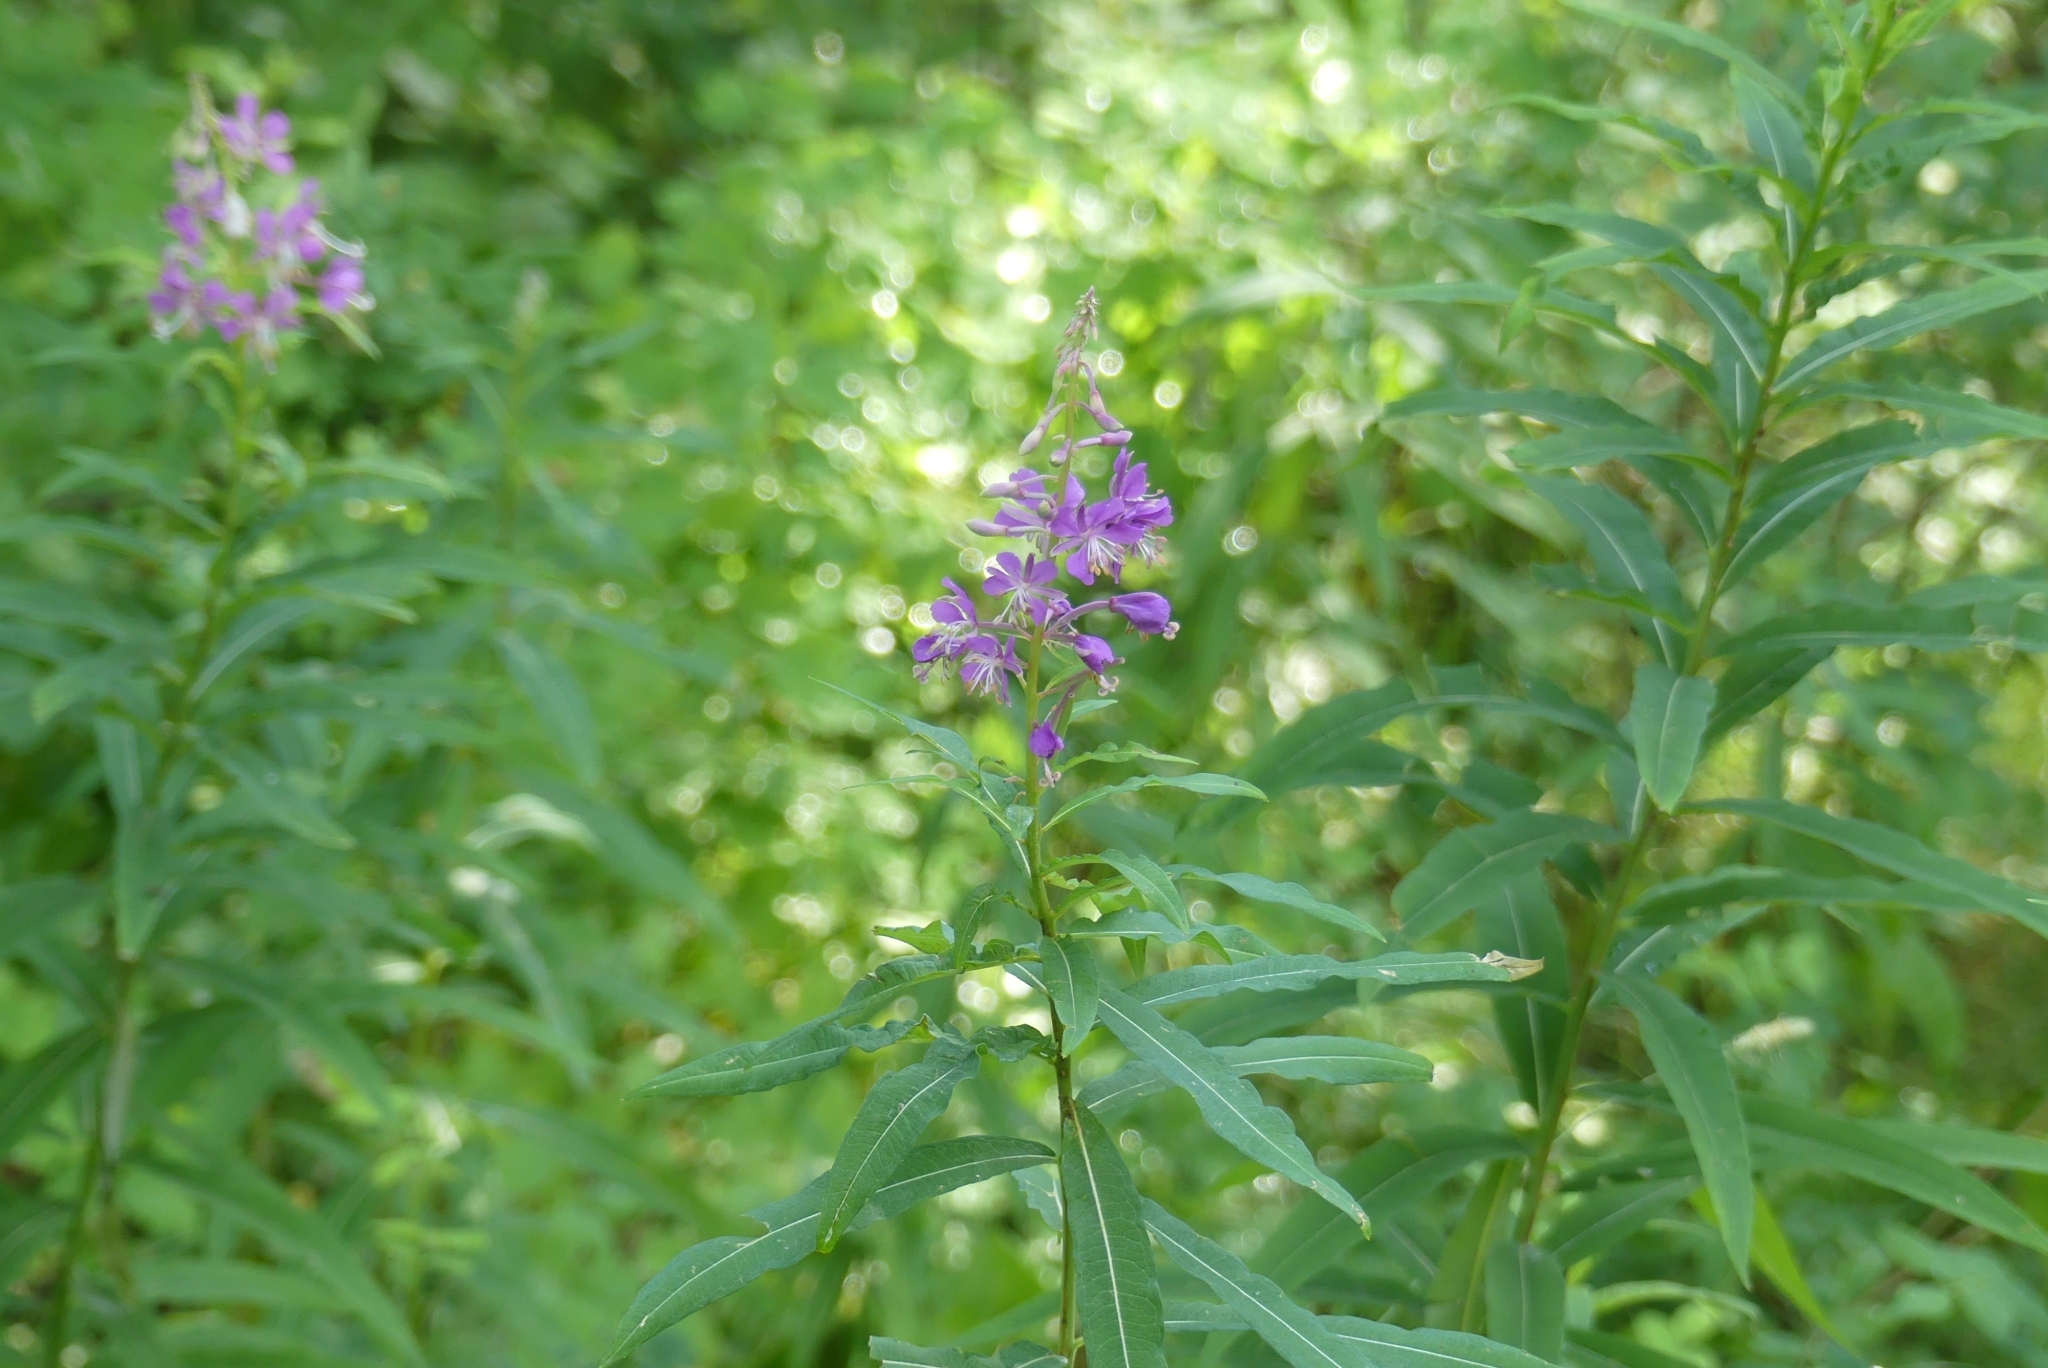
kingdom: Plantae
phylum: Tracheophyta
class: Magnoliopsida
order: Myrtales
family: Onagraceae
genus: Chamaenerion
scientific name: Chamaenerion angustifolium
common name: Fireweed
